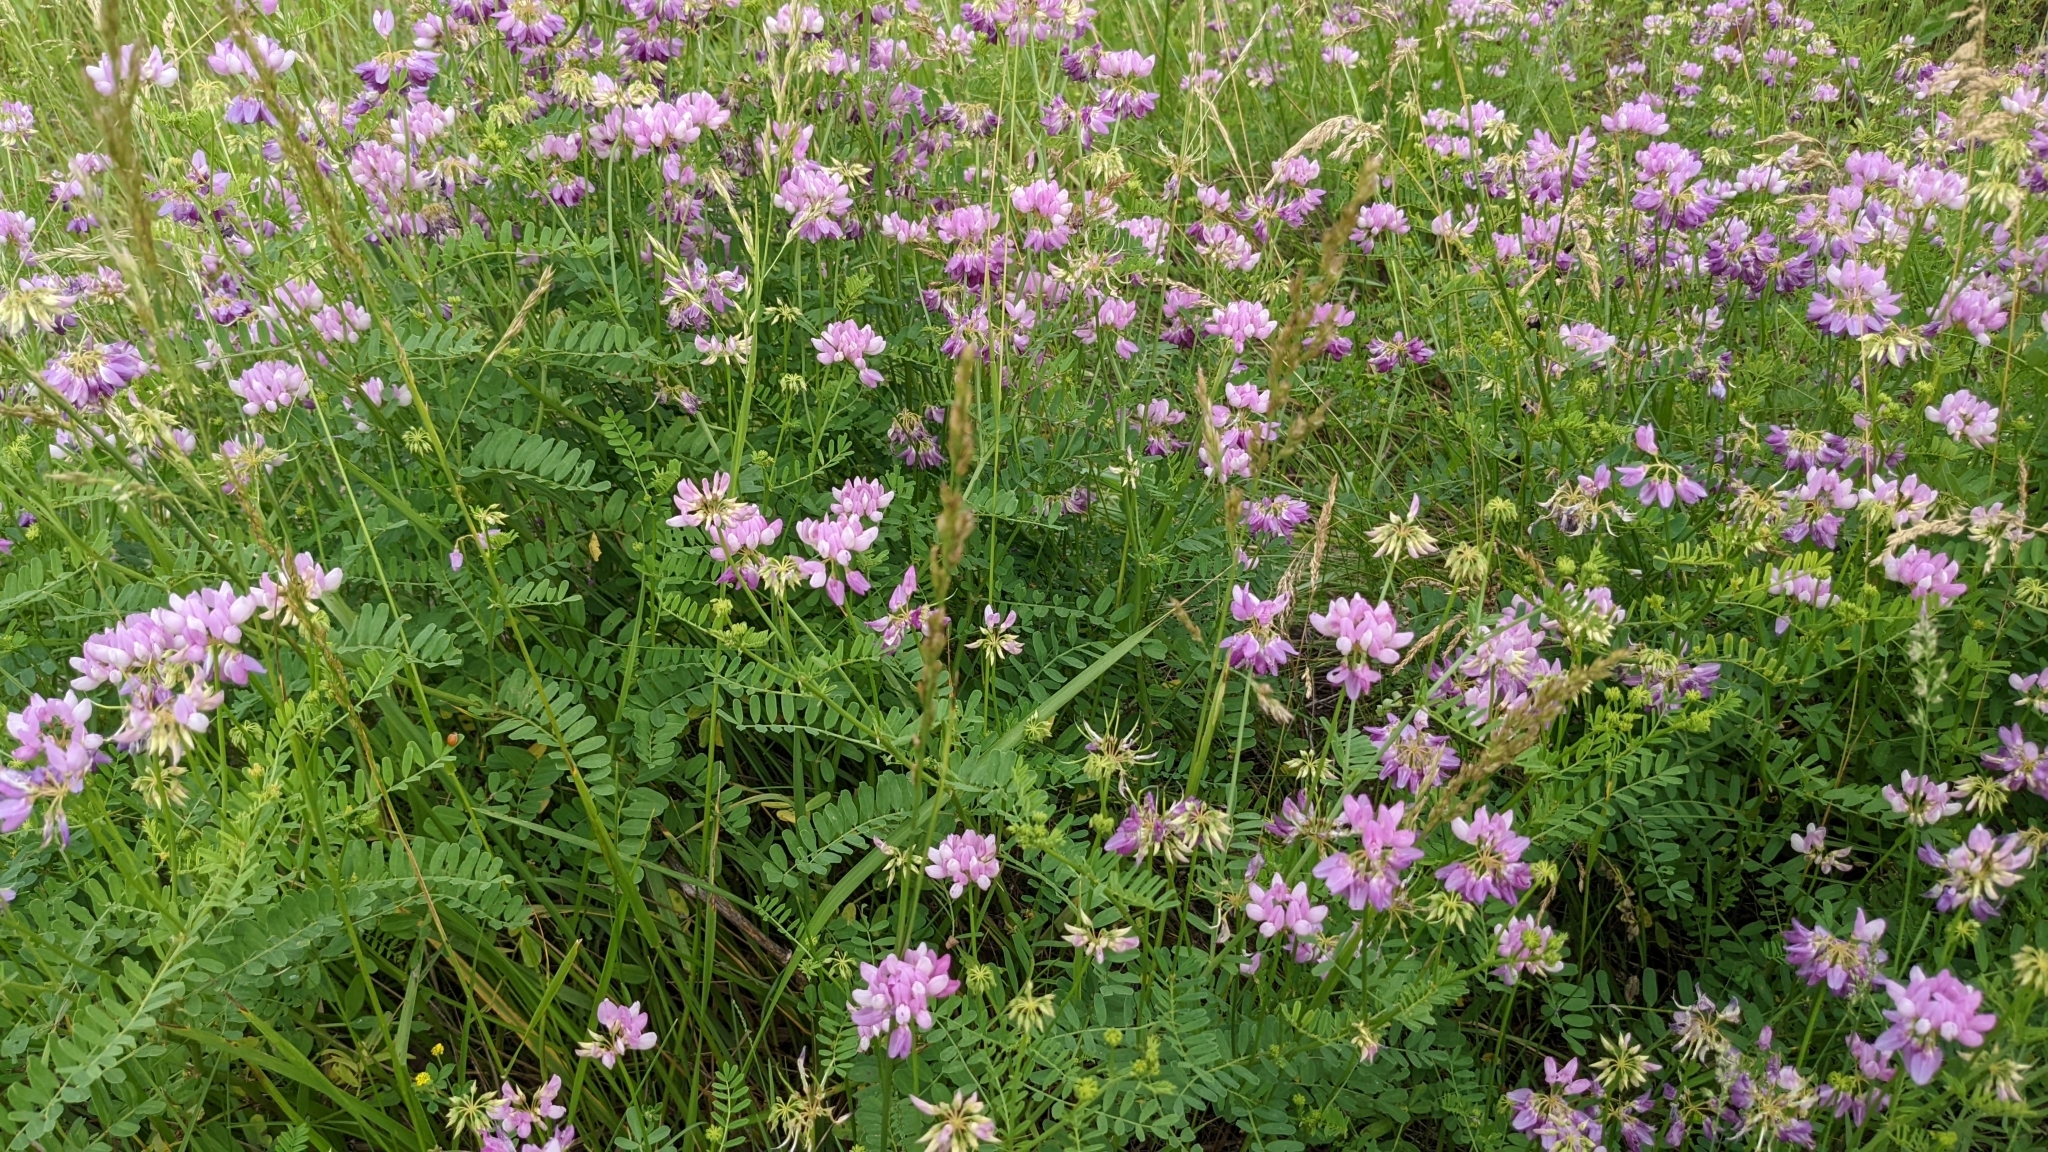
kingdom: Plantae
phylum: Tracheophyta
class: Magnoliopsida
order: Fabales
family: Fabaceae
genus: Coronilla
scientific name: Coronilla varia
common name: Crownvetch
